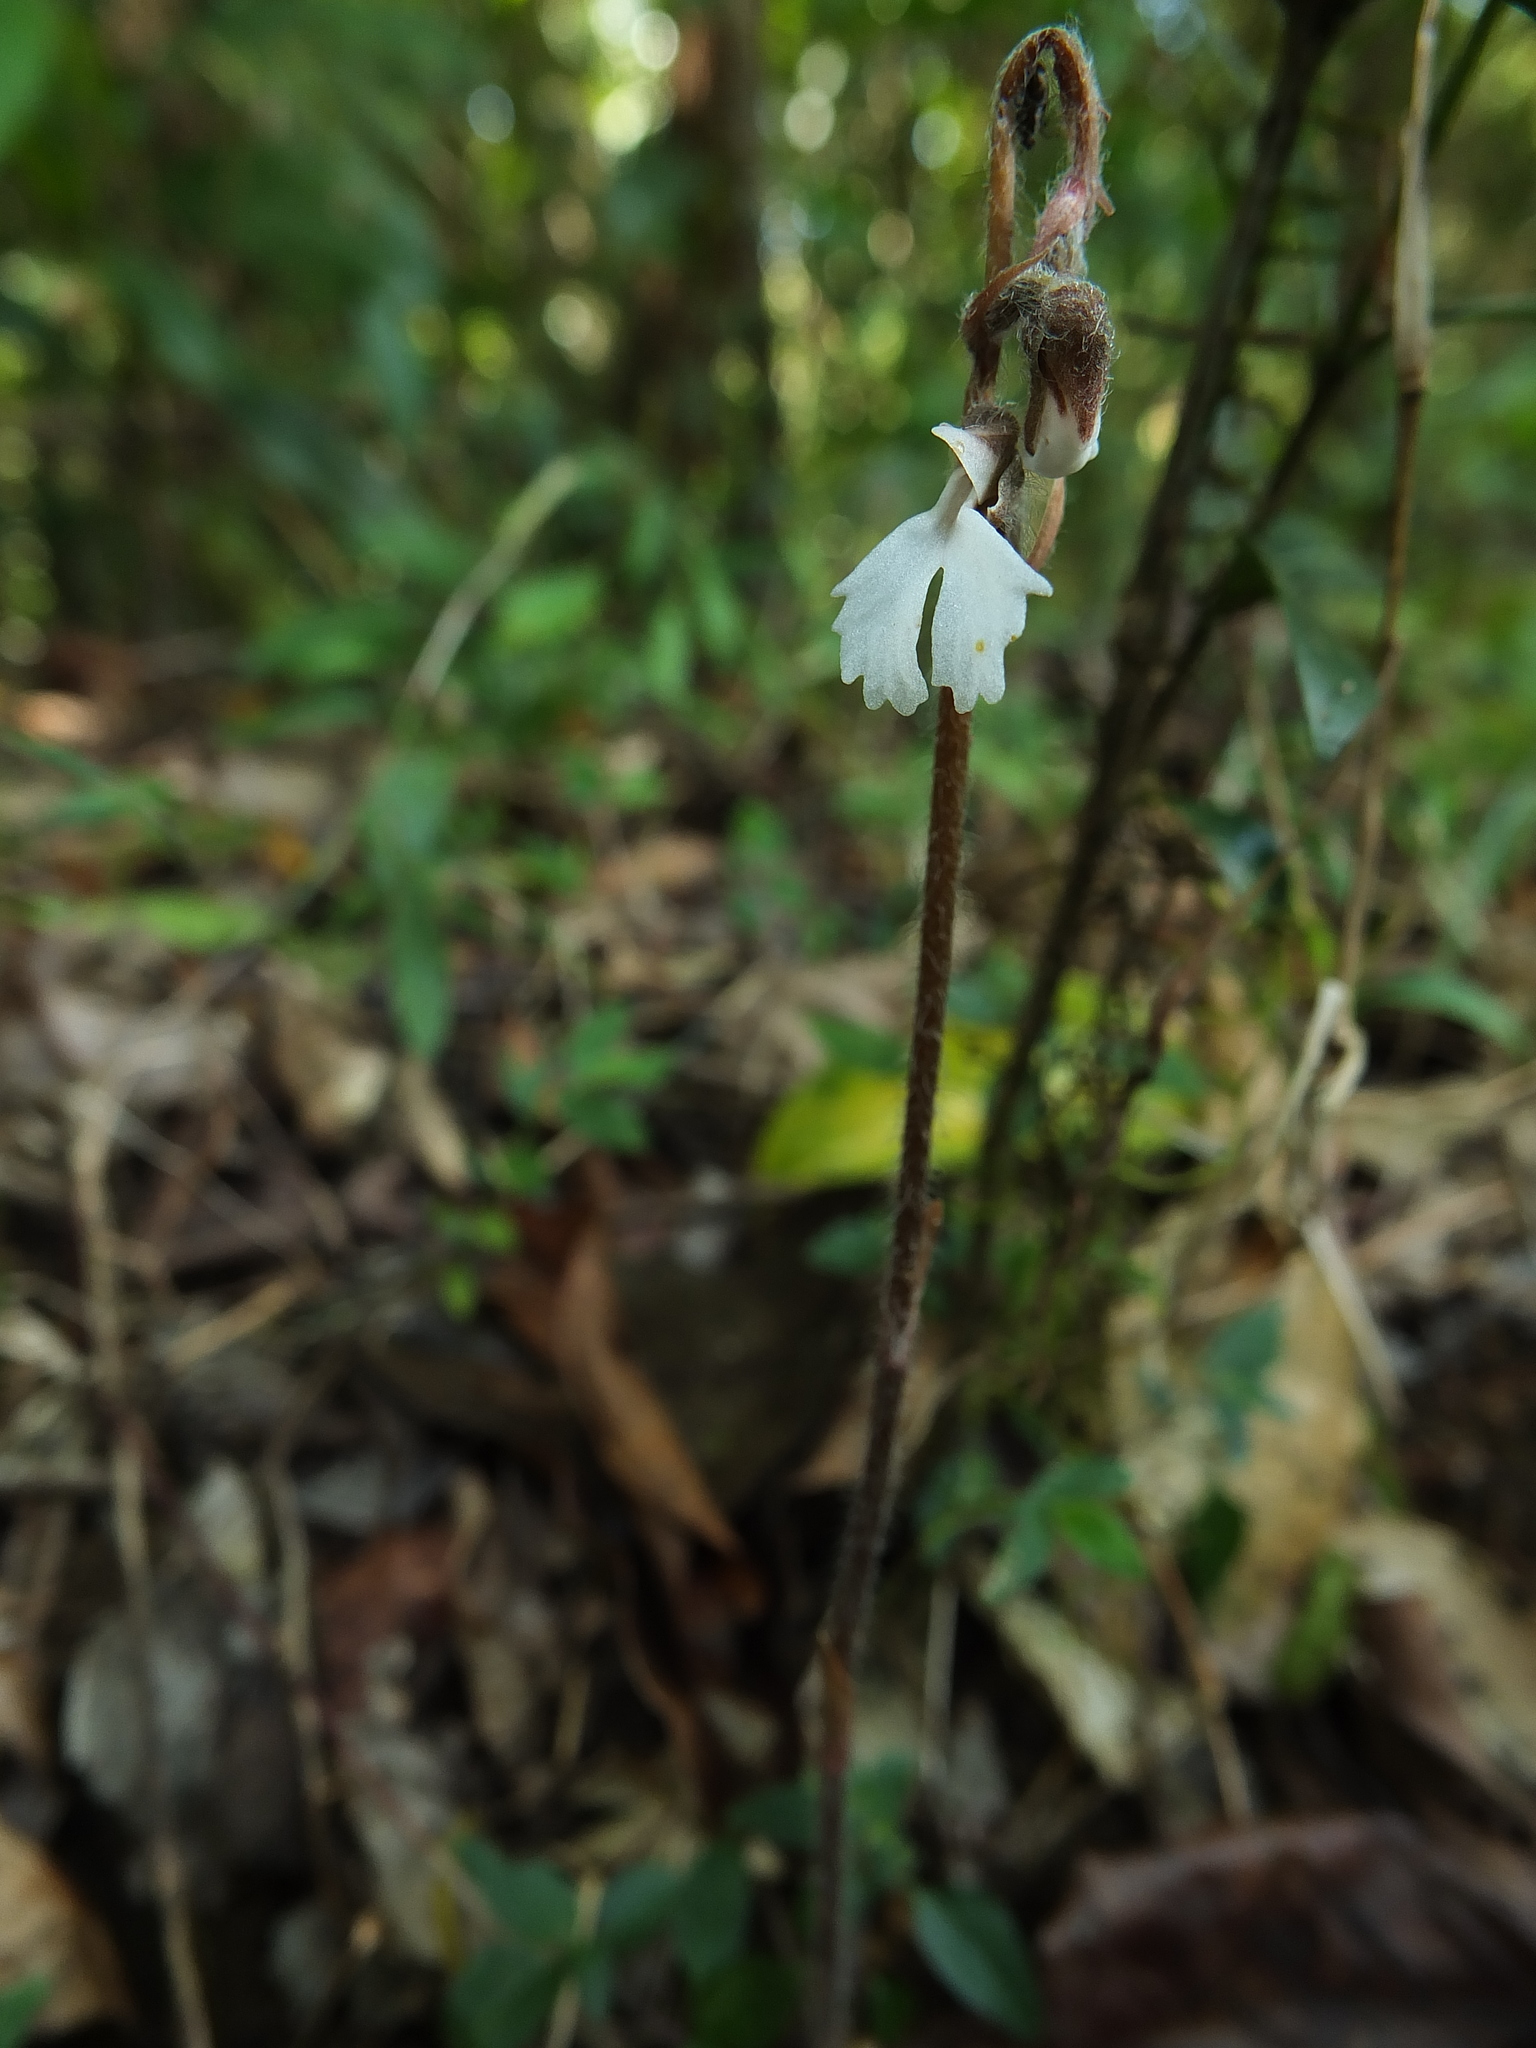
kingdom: Plantae
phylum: Tracheophyta
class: Liliopsida
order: Asparagales
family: Orchidaceae
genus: Zeuxine
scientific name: Zeuxine longilabris
